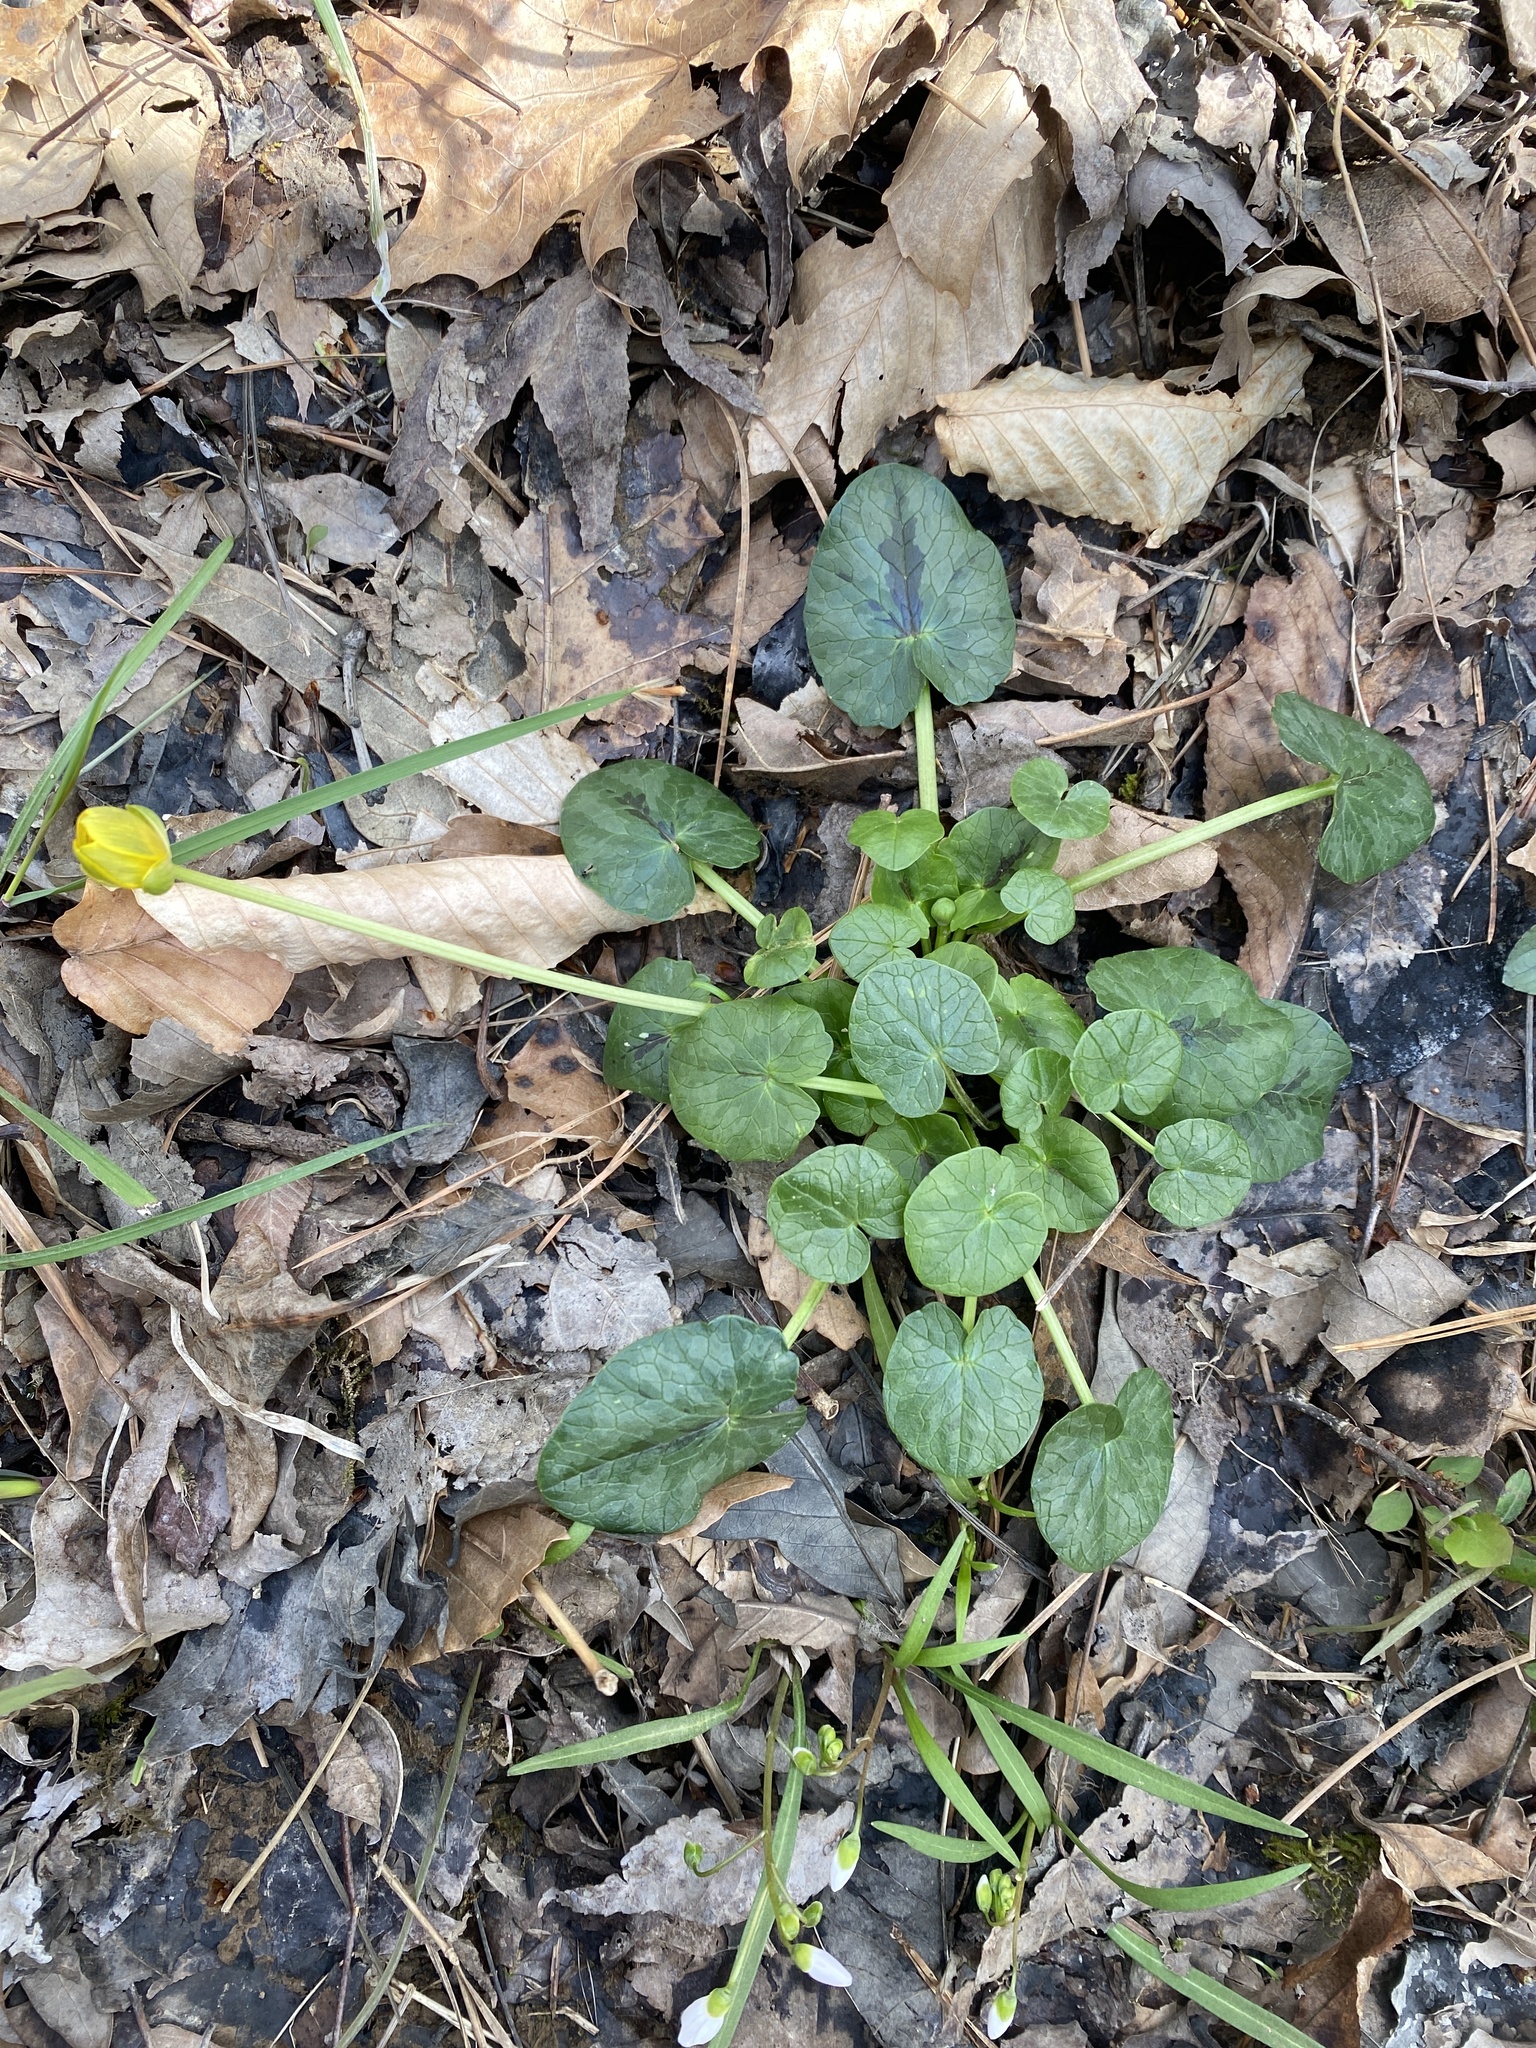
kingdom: Plantae
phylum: Tracheophyta
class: Magnoliopsida
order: Ranunculales
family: Ranunculaceae
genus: Ficaria
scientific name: Ficaria verna
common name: Lesser celandine
